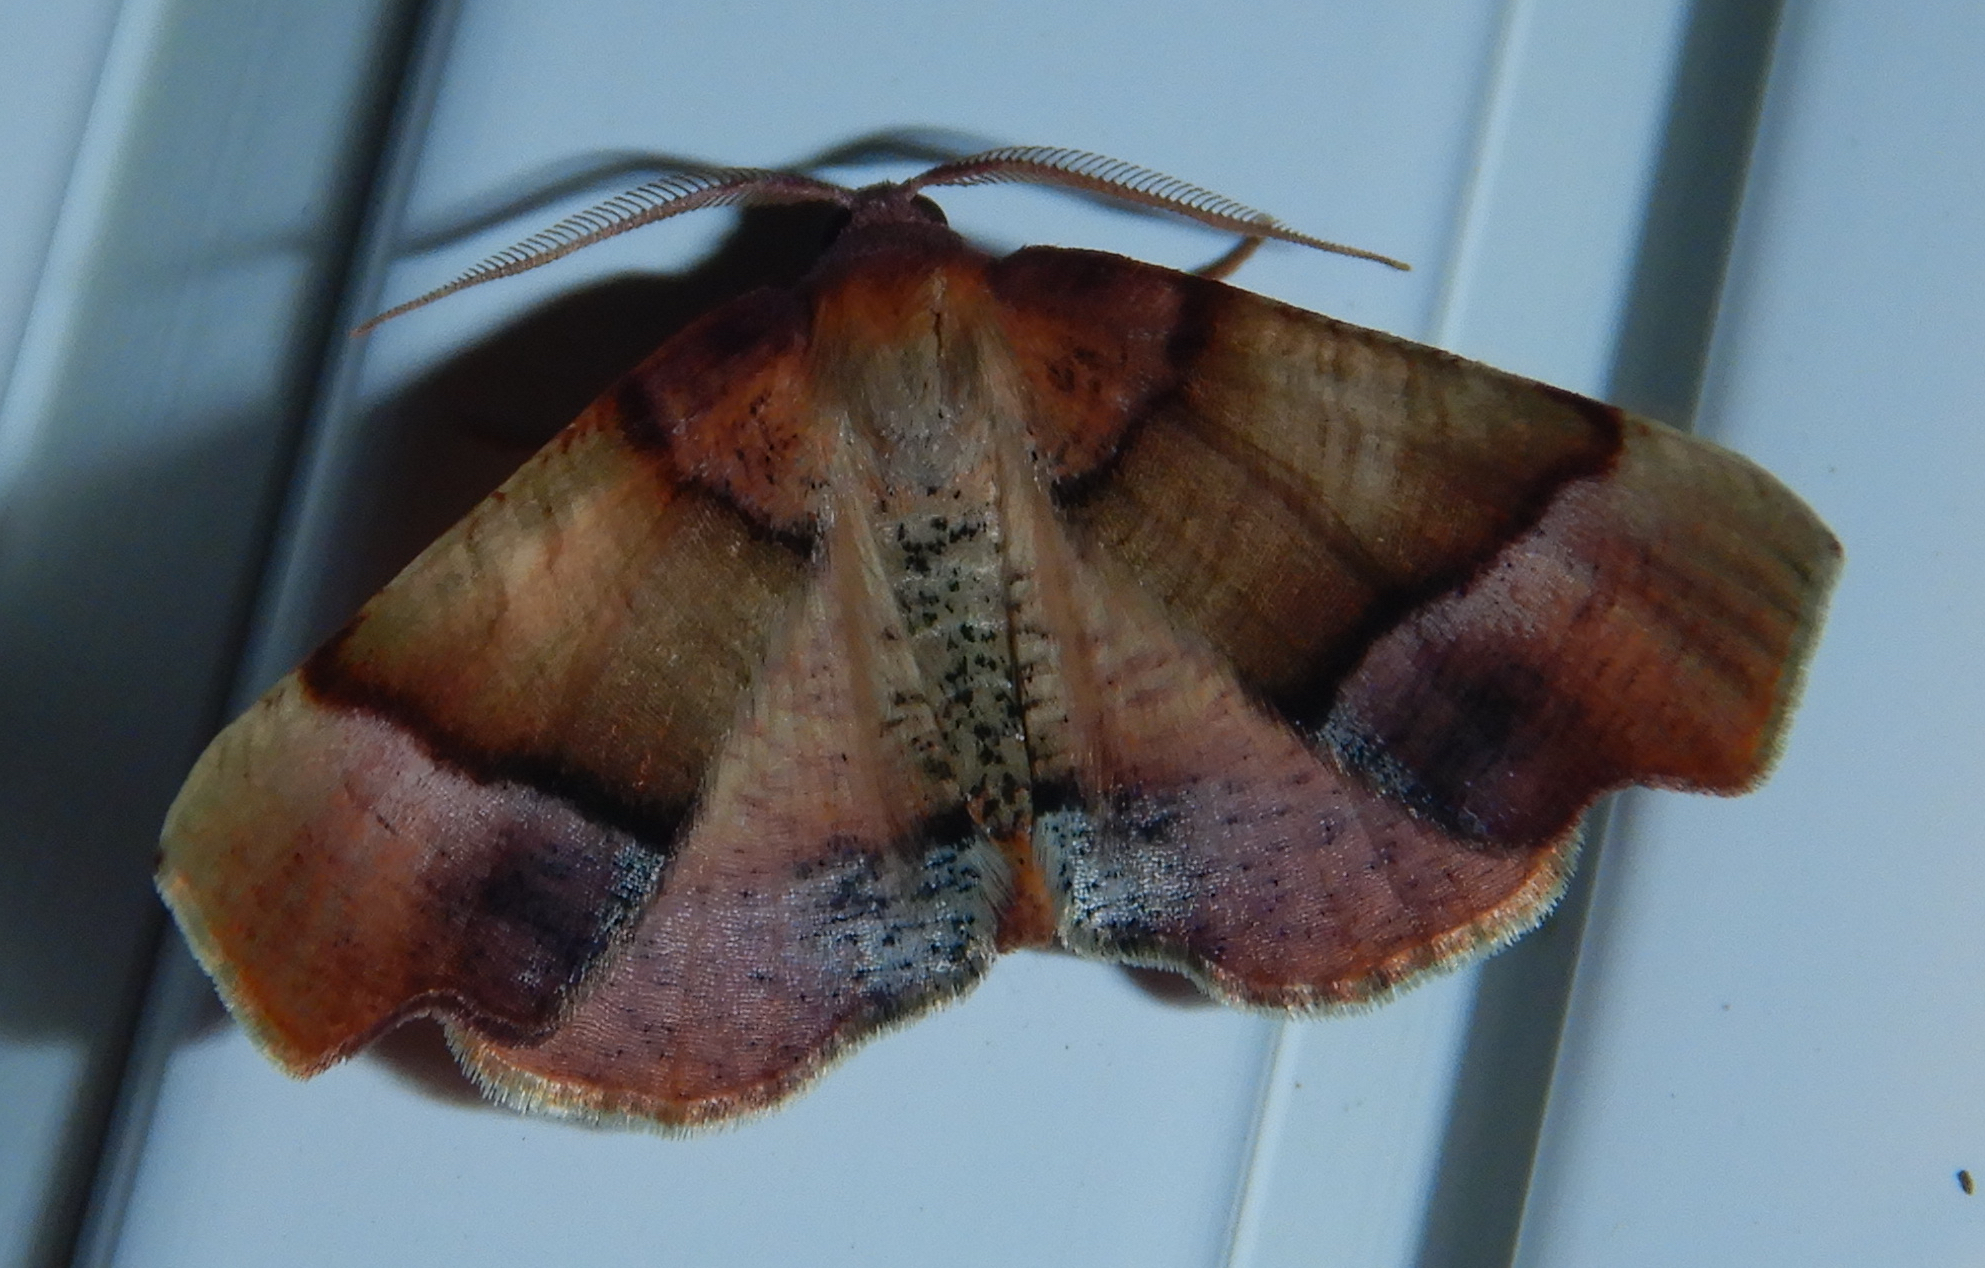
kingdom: Animalia
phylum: Arthropoda
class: Insecta
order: Lepidoptera
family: Geometridae
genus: Plagodis
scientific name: Plagodis phlogosaria
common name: Straight-lined plagodis
